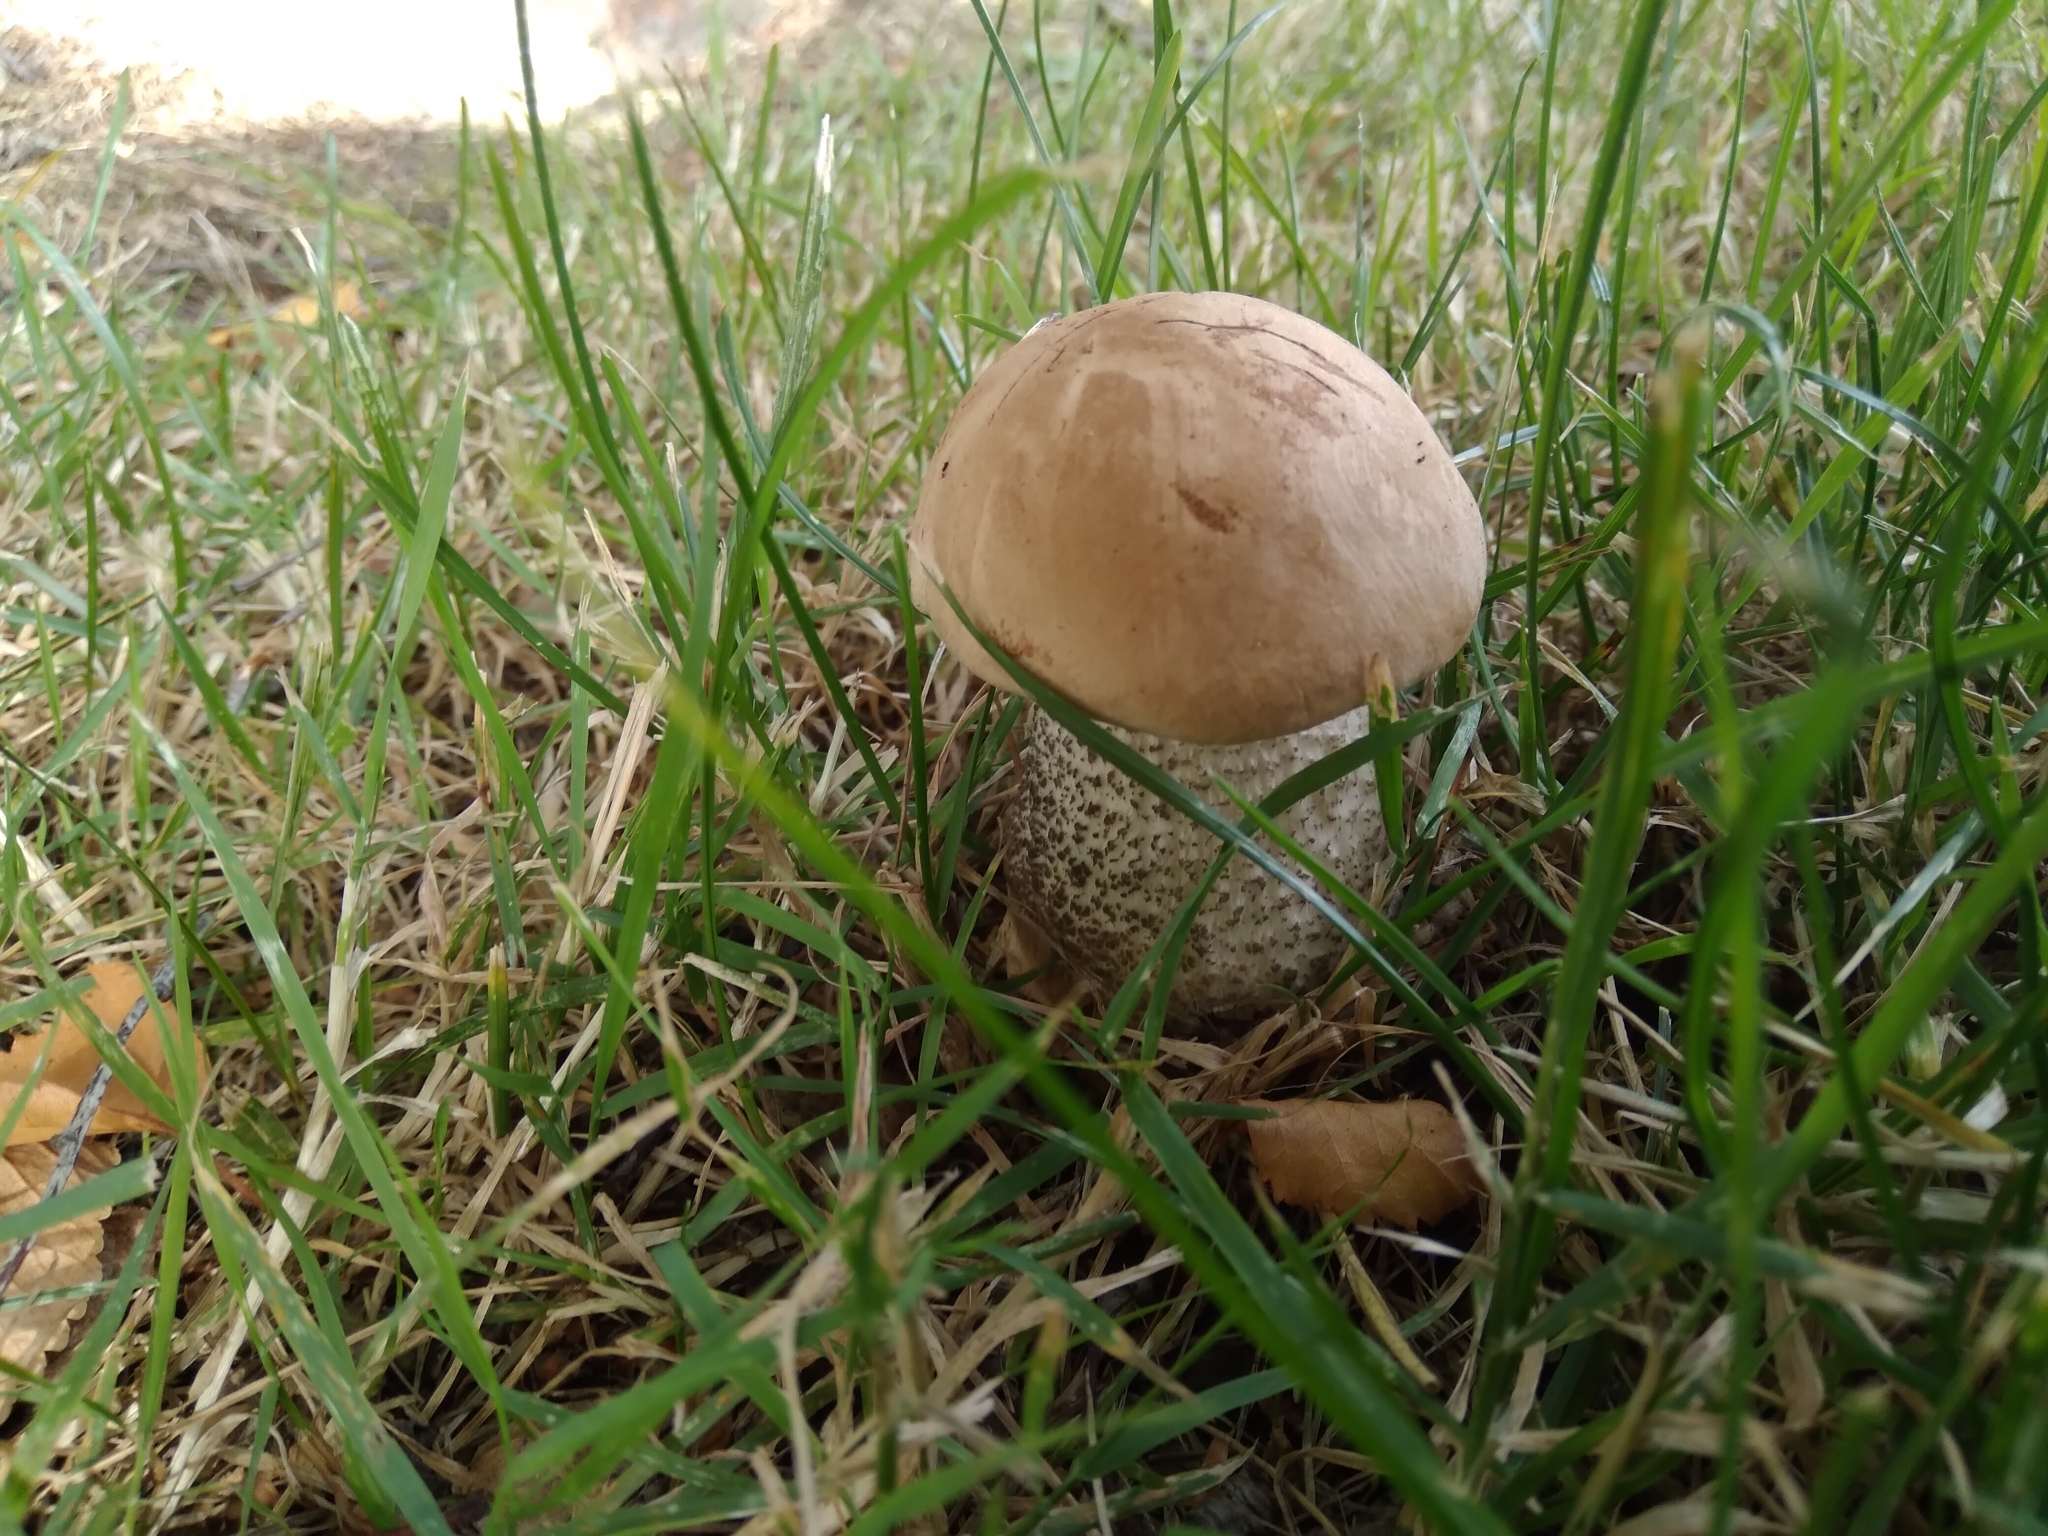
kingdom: Fungi
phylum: Basidiomycota
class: Agaricomycetes
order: Boletales
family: Boletaceae
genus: Leccinum
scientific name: Leccinum scabrum
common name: Blushing bolete
